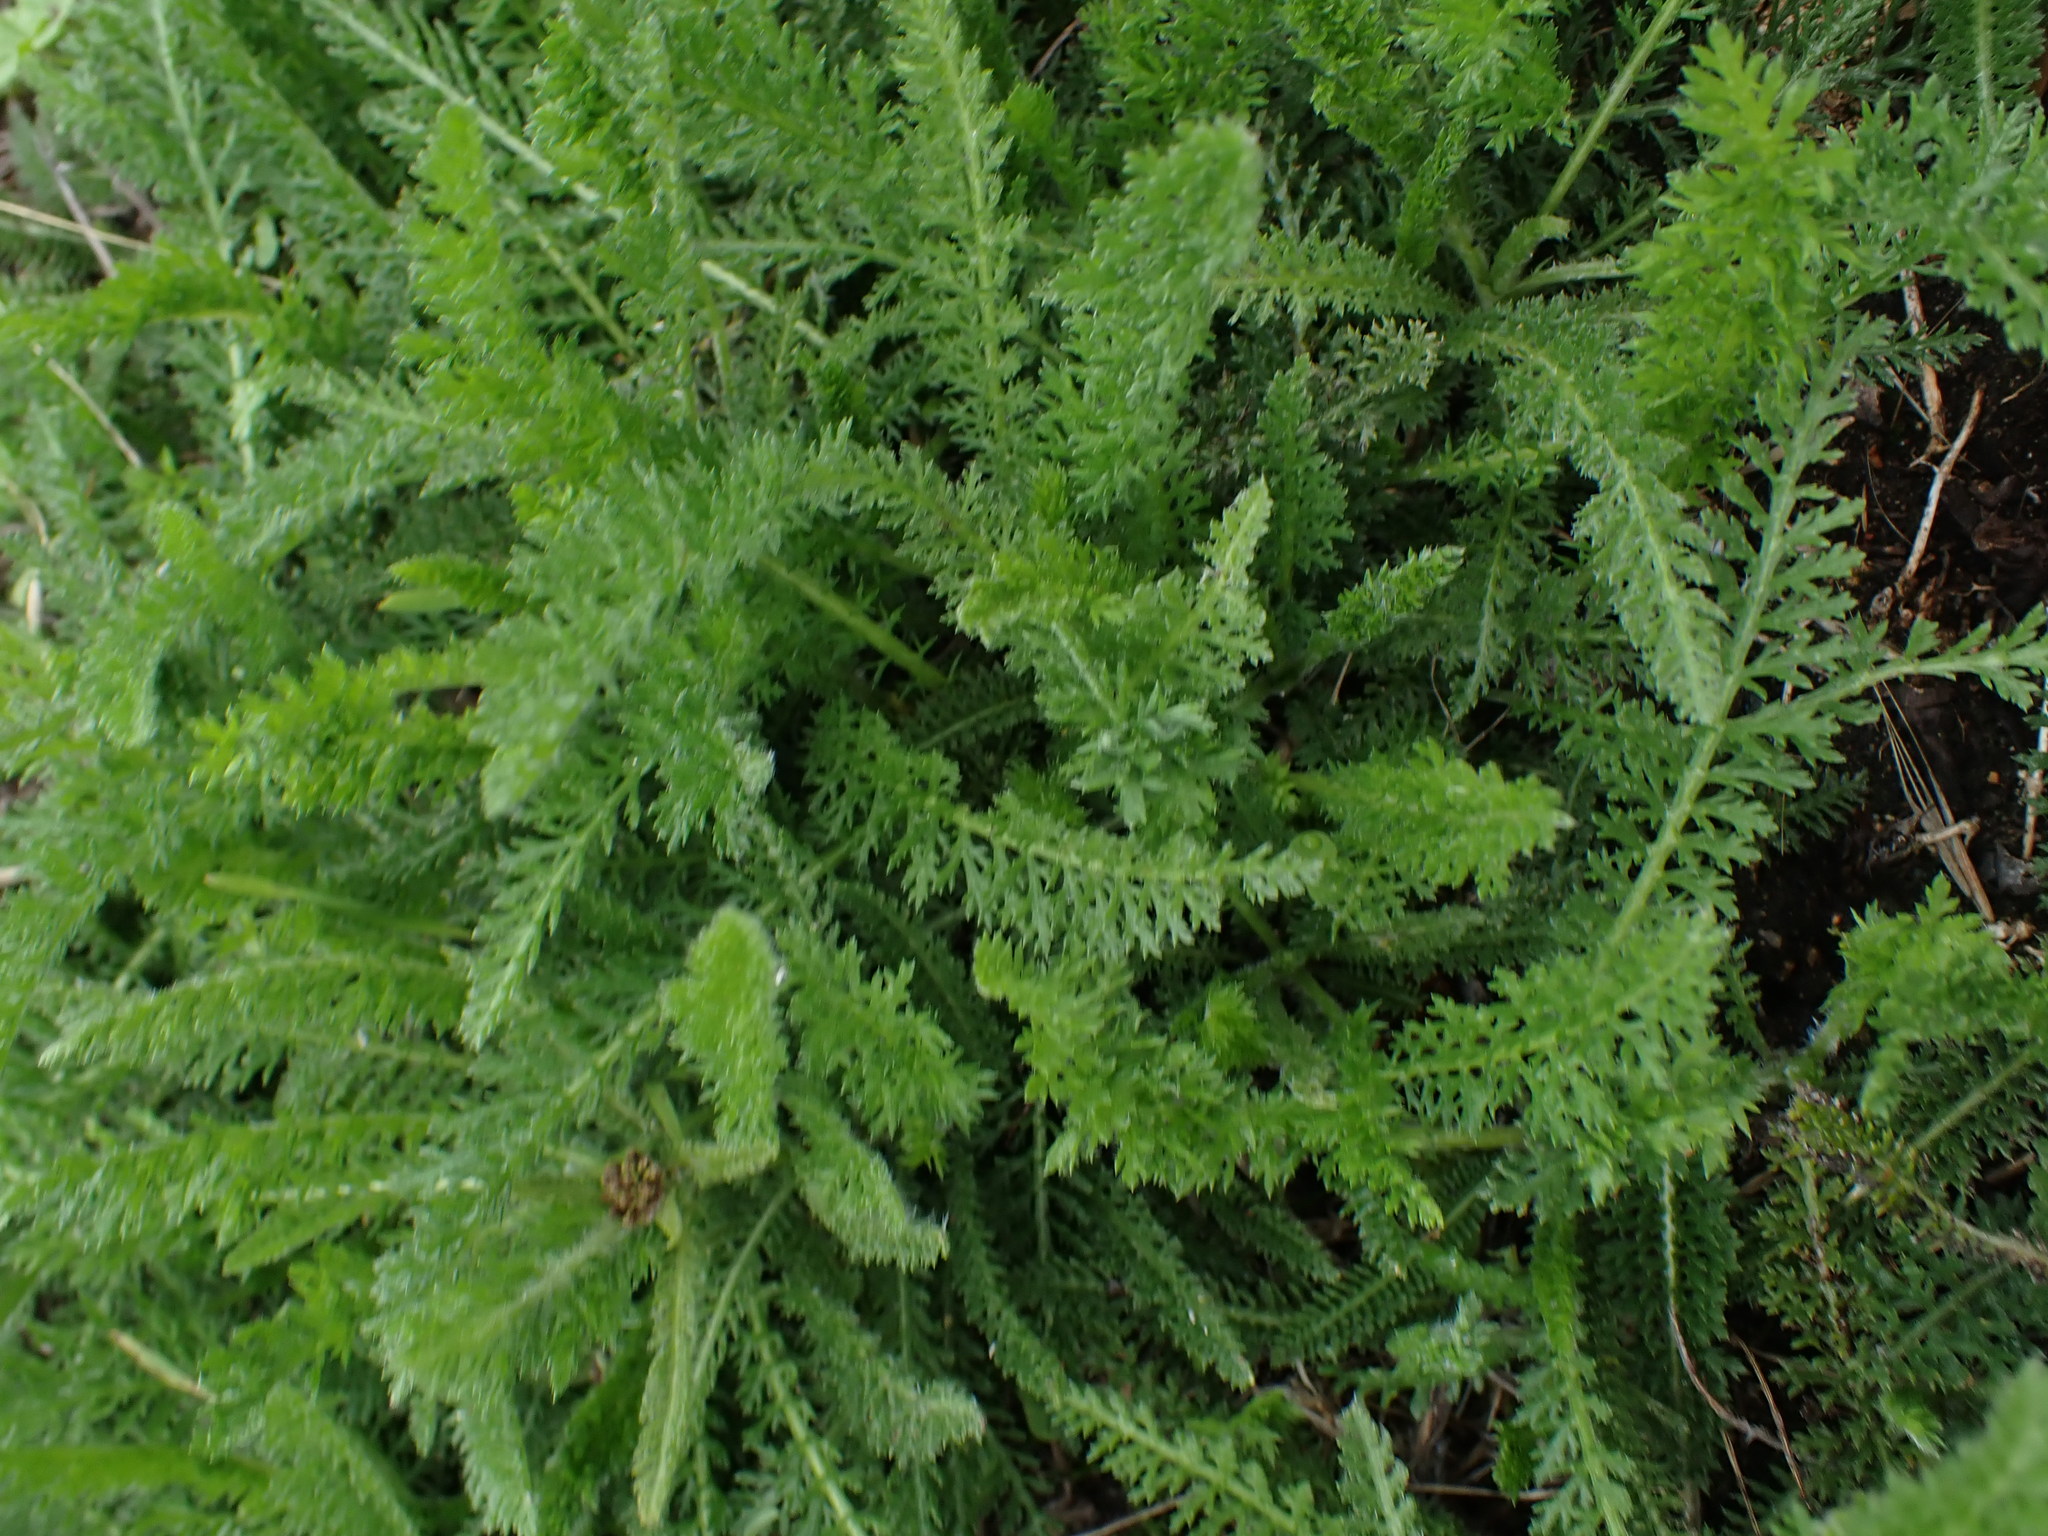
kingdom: Plantae
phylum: Tracheophyta
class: Magnoliopsida
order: Asterales
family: Asteraceae
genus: Achillea
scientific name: Achillea millefolium
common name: Yarrow
